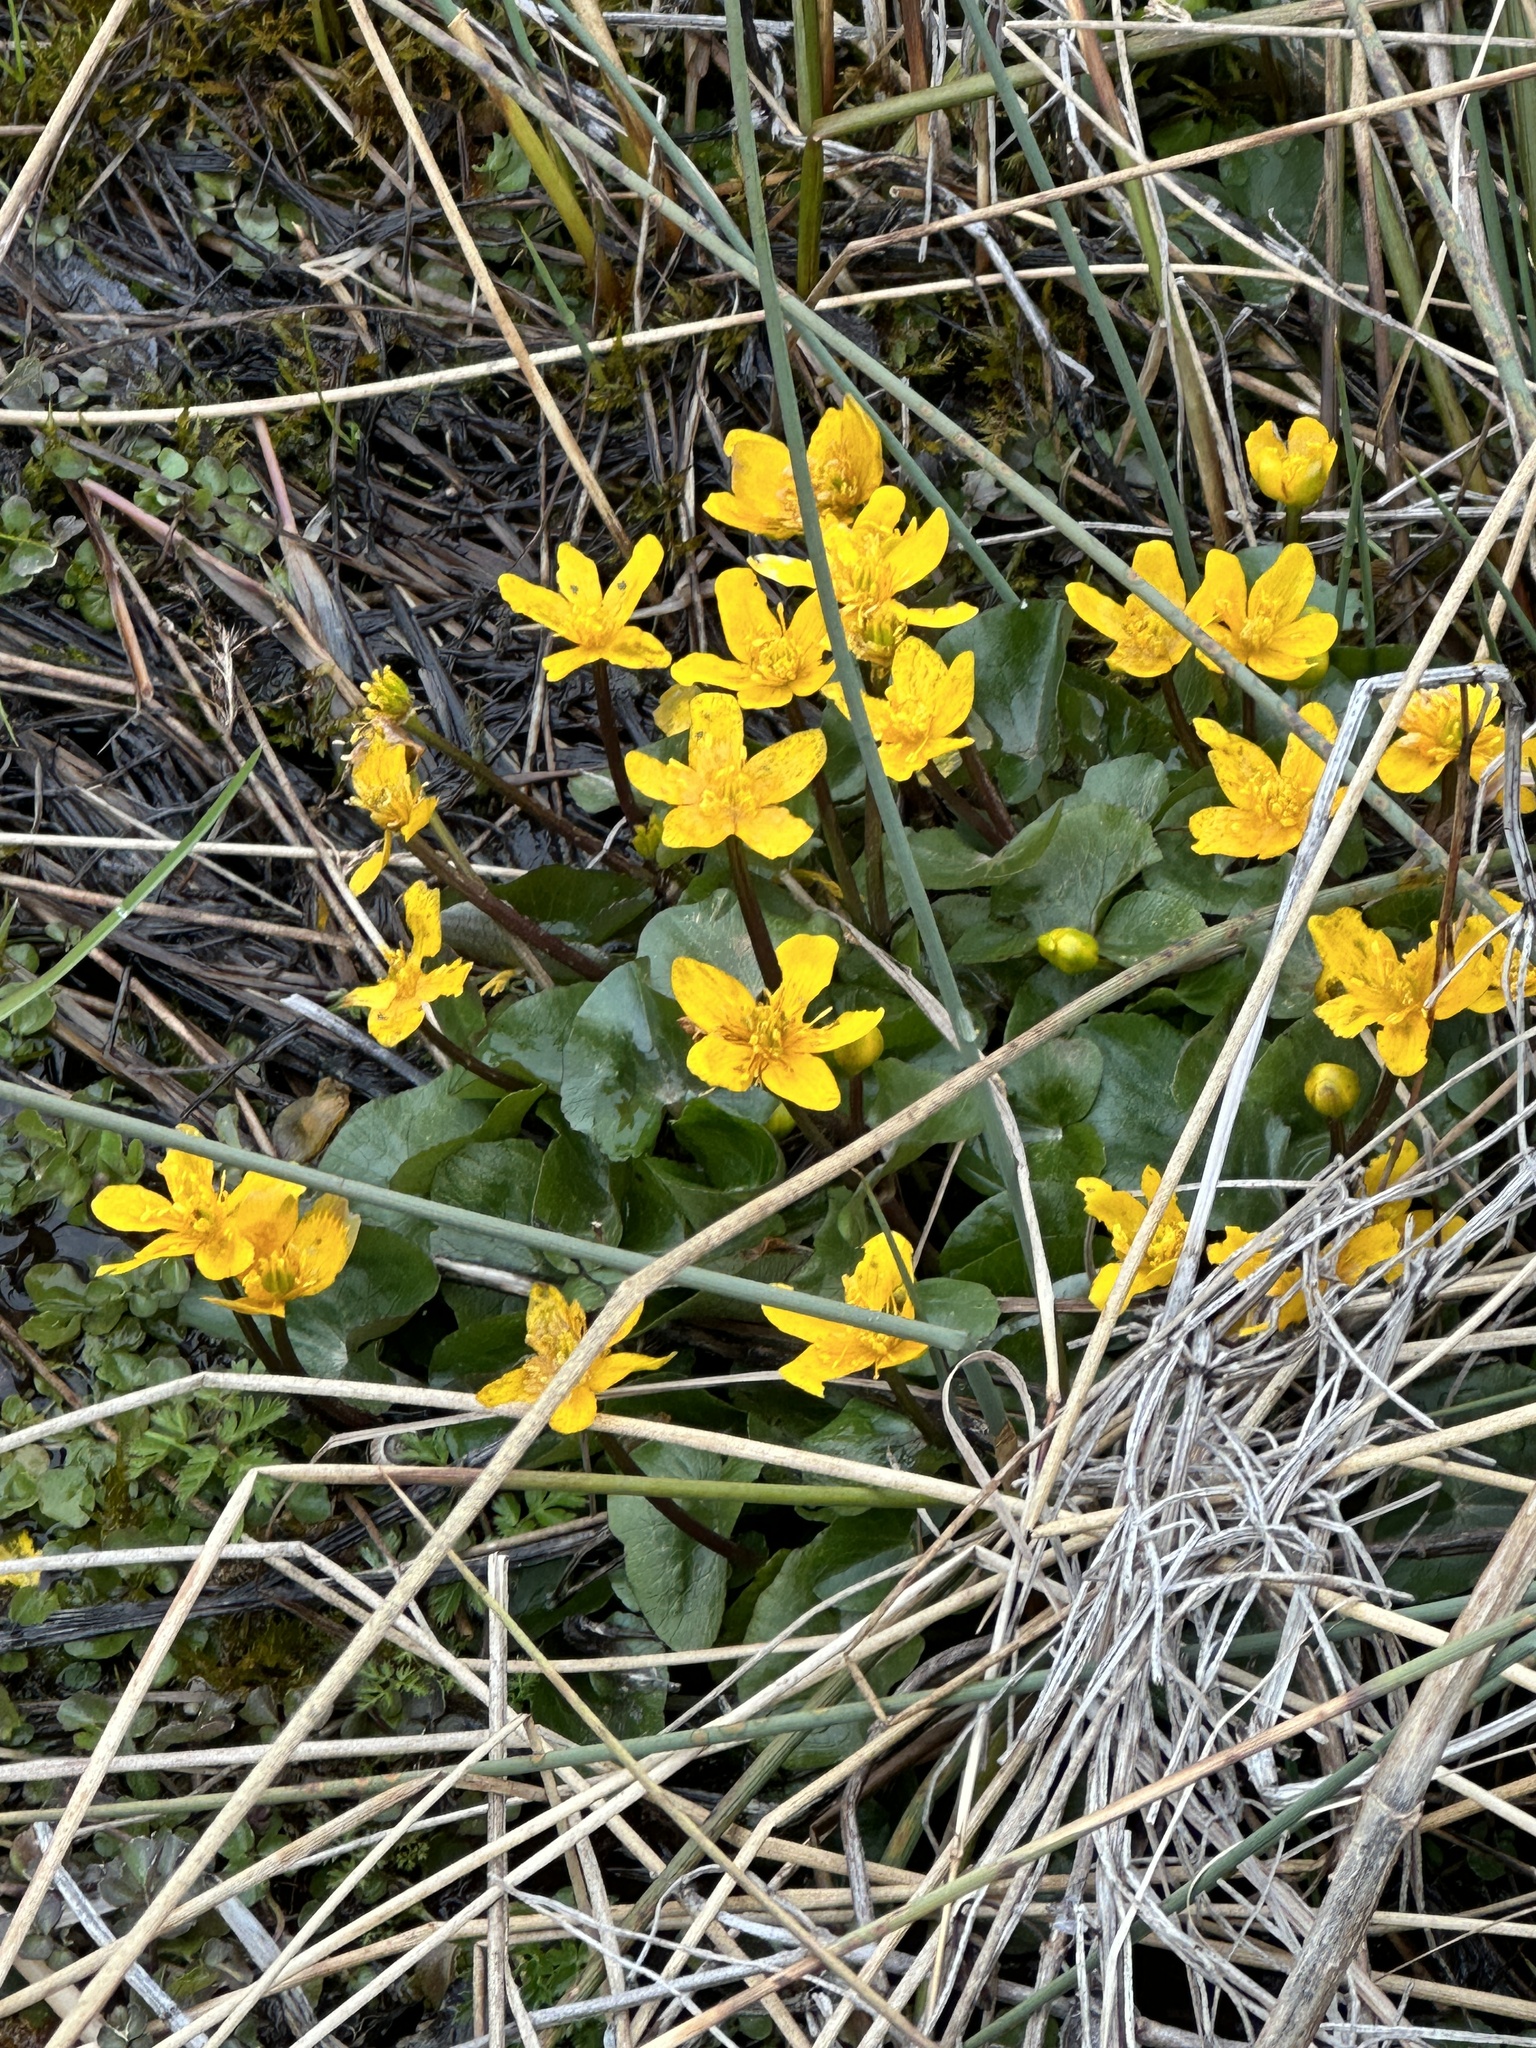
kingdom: Plantae
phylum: Tracheophyta
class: Magnoliopsida
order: Ranunculales
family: Ranunculaceae
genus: Caltha
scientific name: Caltha palustris
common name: Marsh marigold
